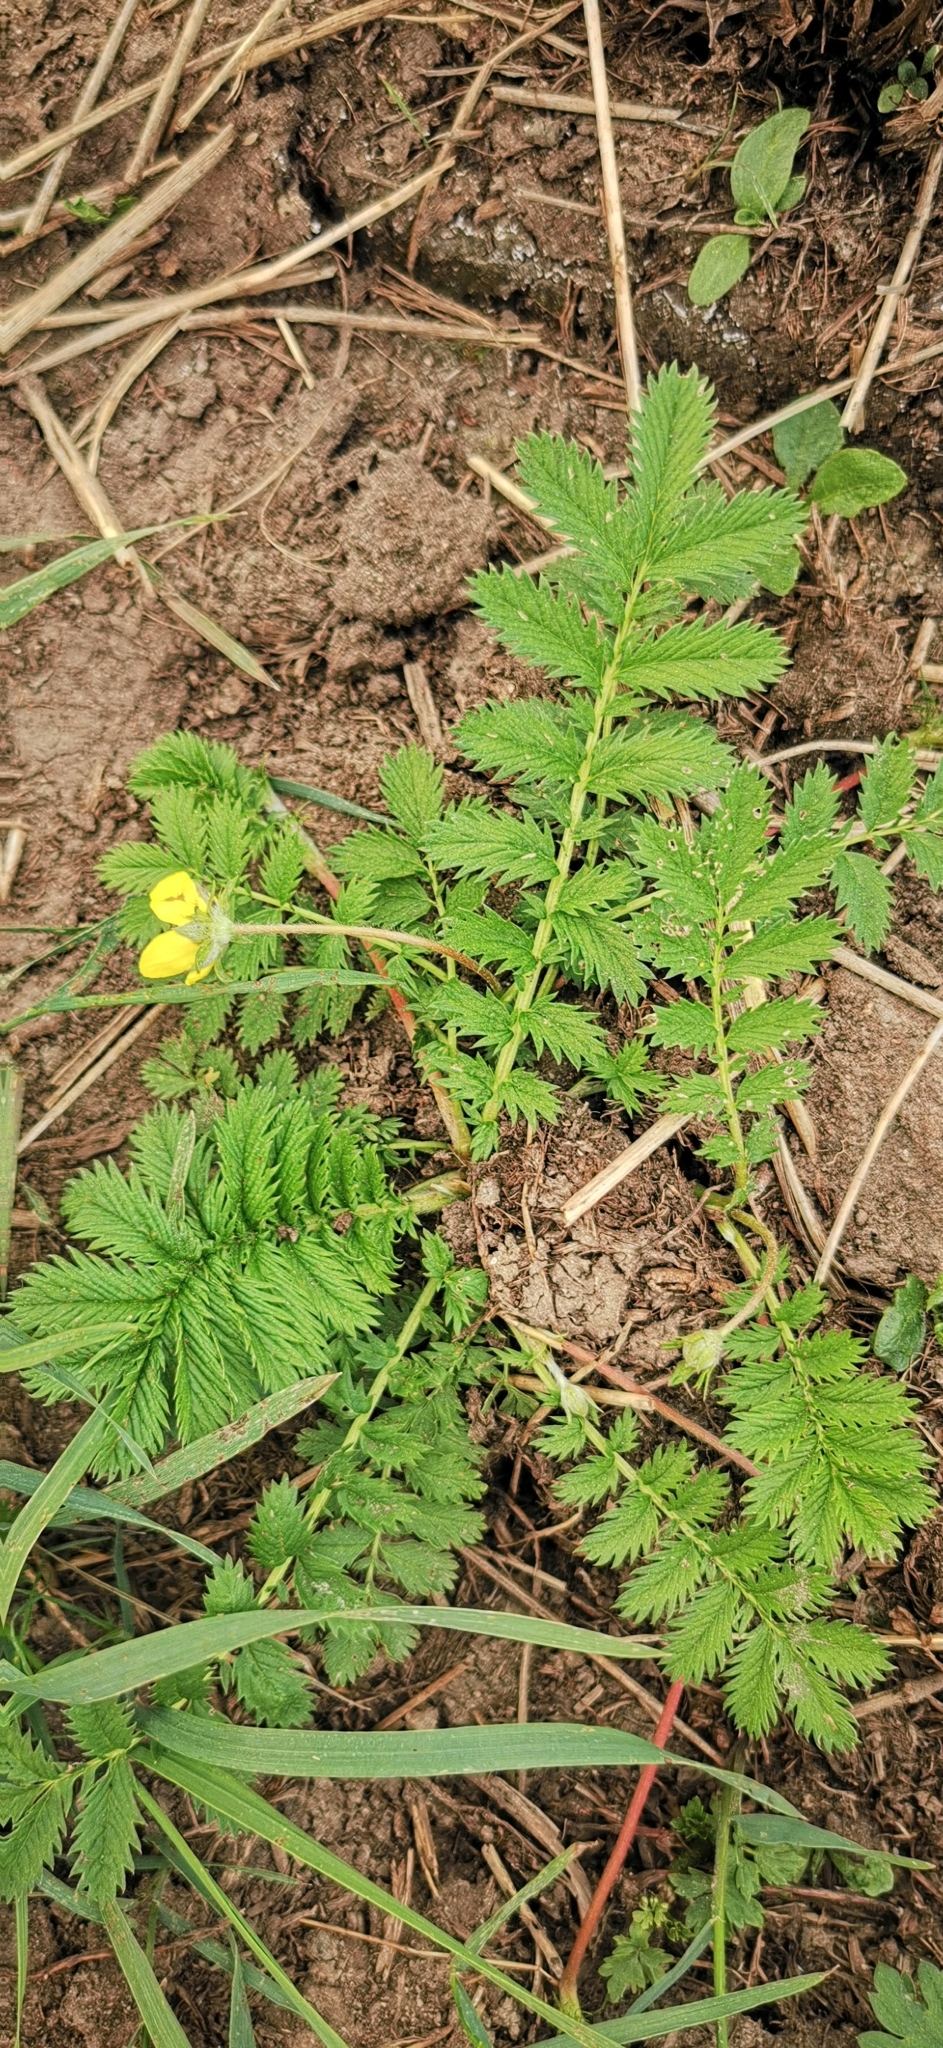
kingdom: Plantae
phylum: Tracheophyta
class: Magnoliopsida
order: Rosales
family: Rosaceae
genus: Argentina
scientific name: Argentina anserina
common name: Common silverweed
